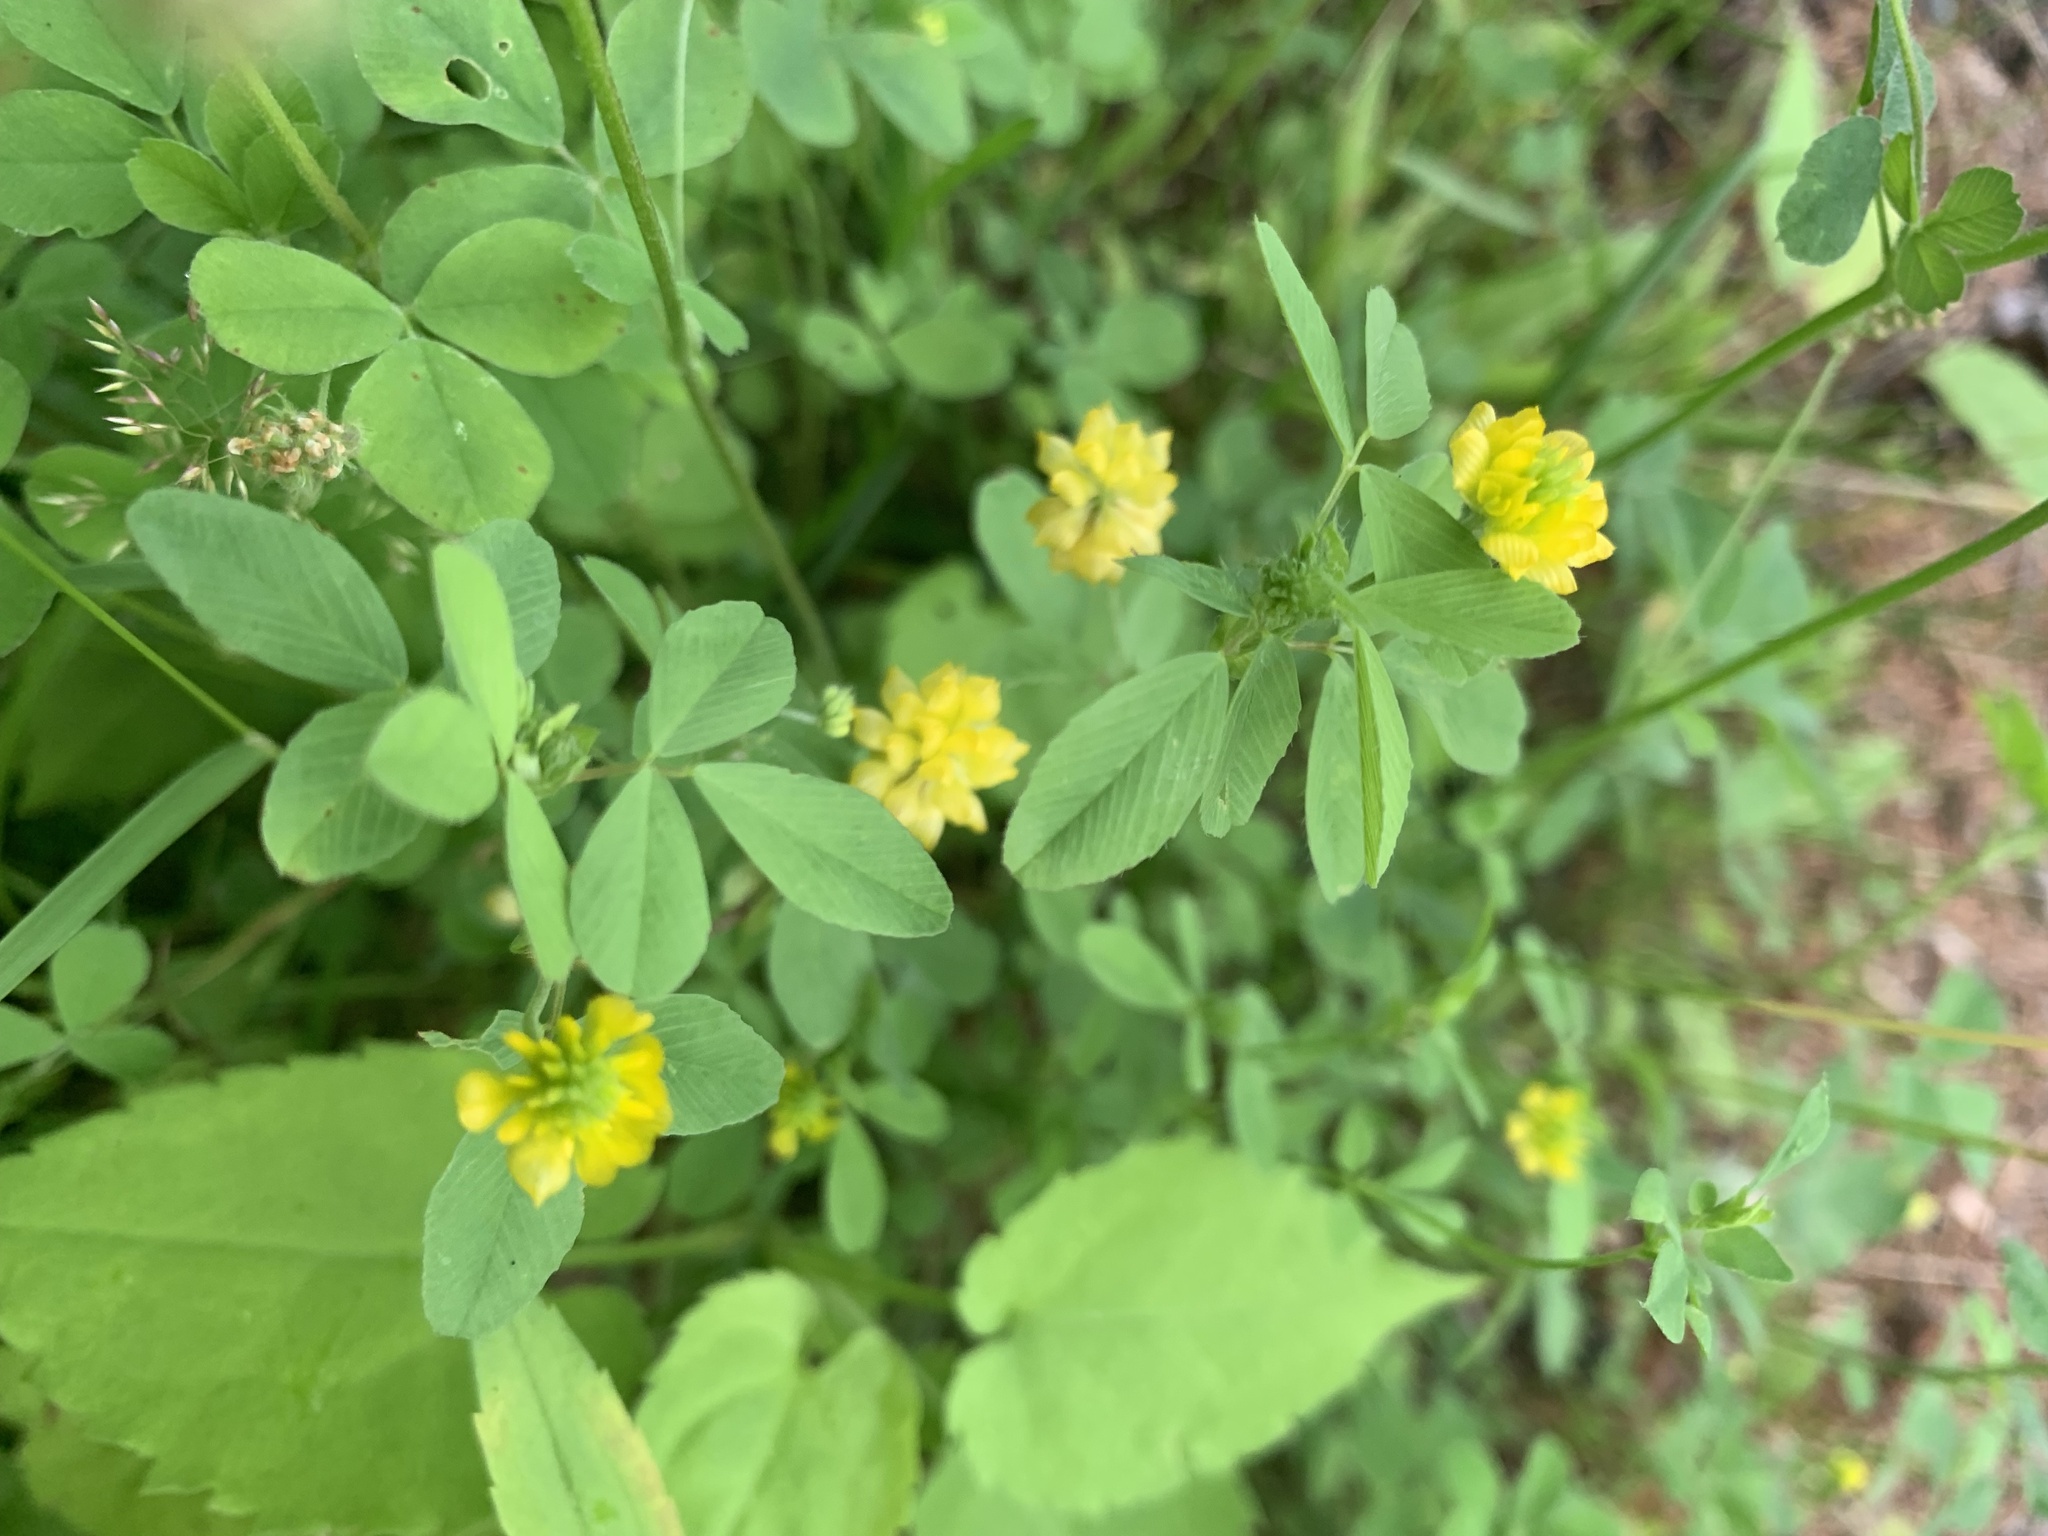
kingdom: Plantae
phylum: Tracheophyta
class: Magnoliopsida
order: Fabales
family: Fabaceae
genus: Trifolium
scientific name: Trifolium campestre
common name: Field clover
